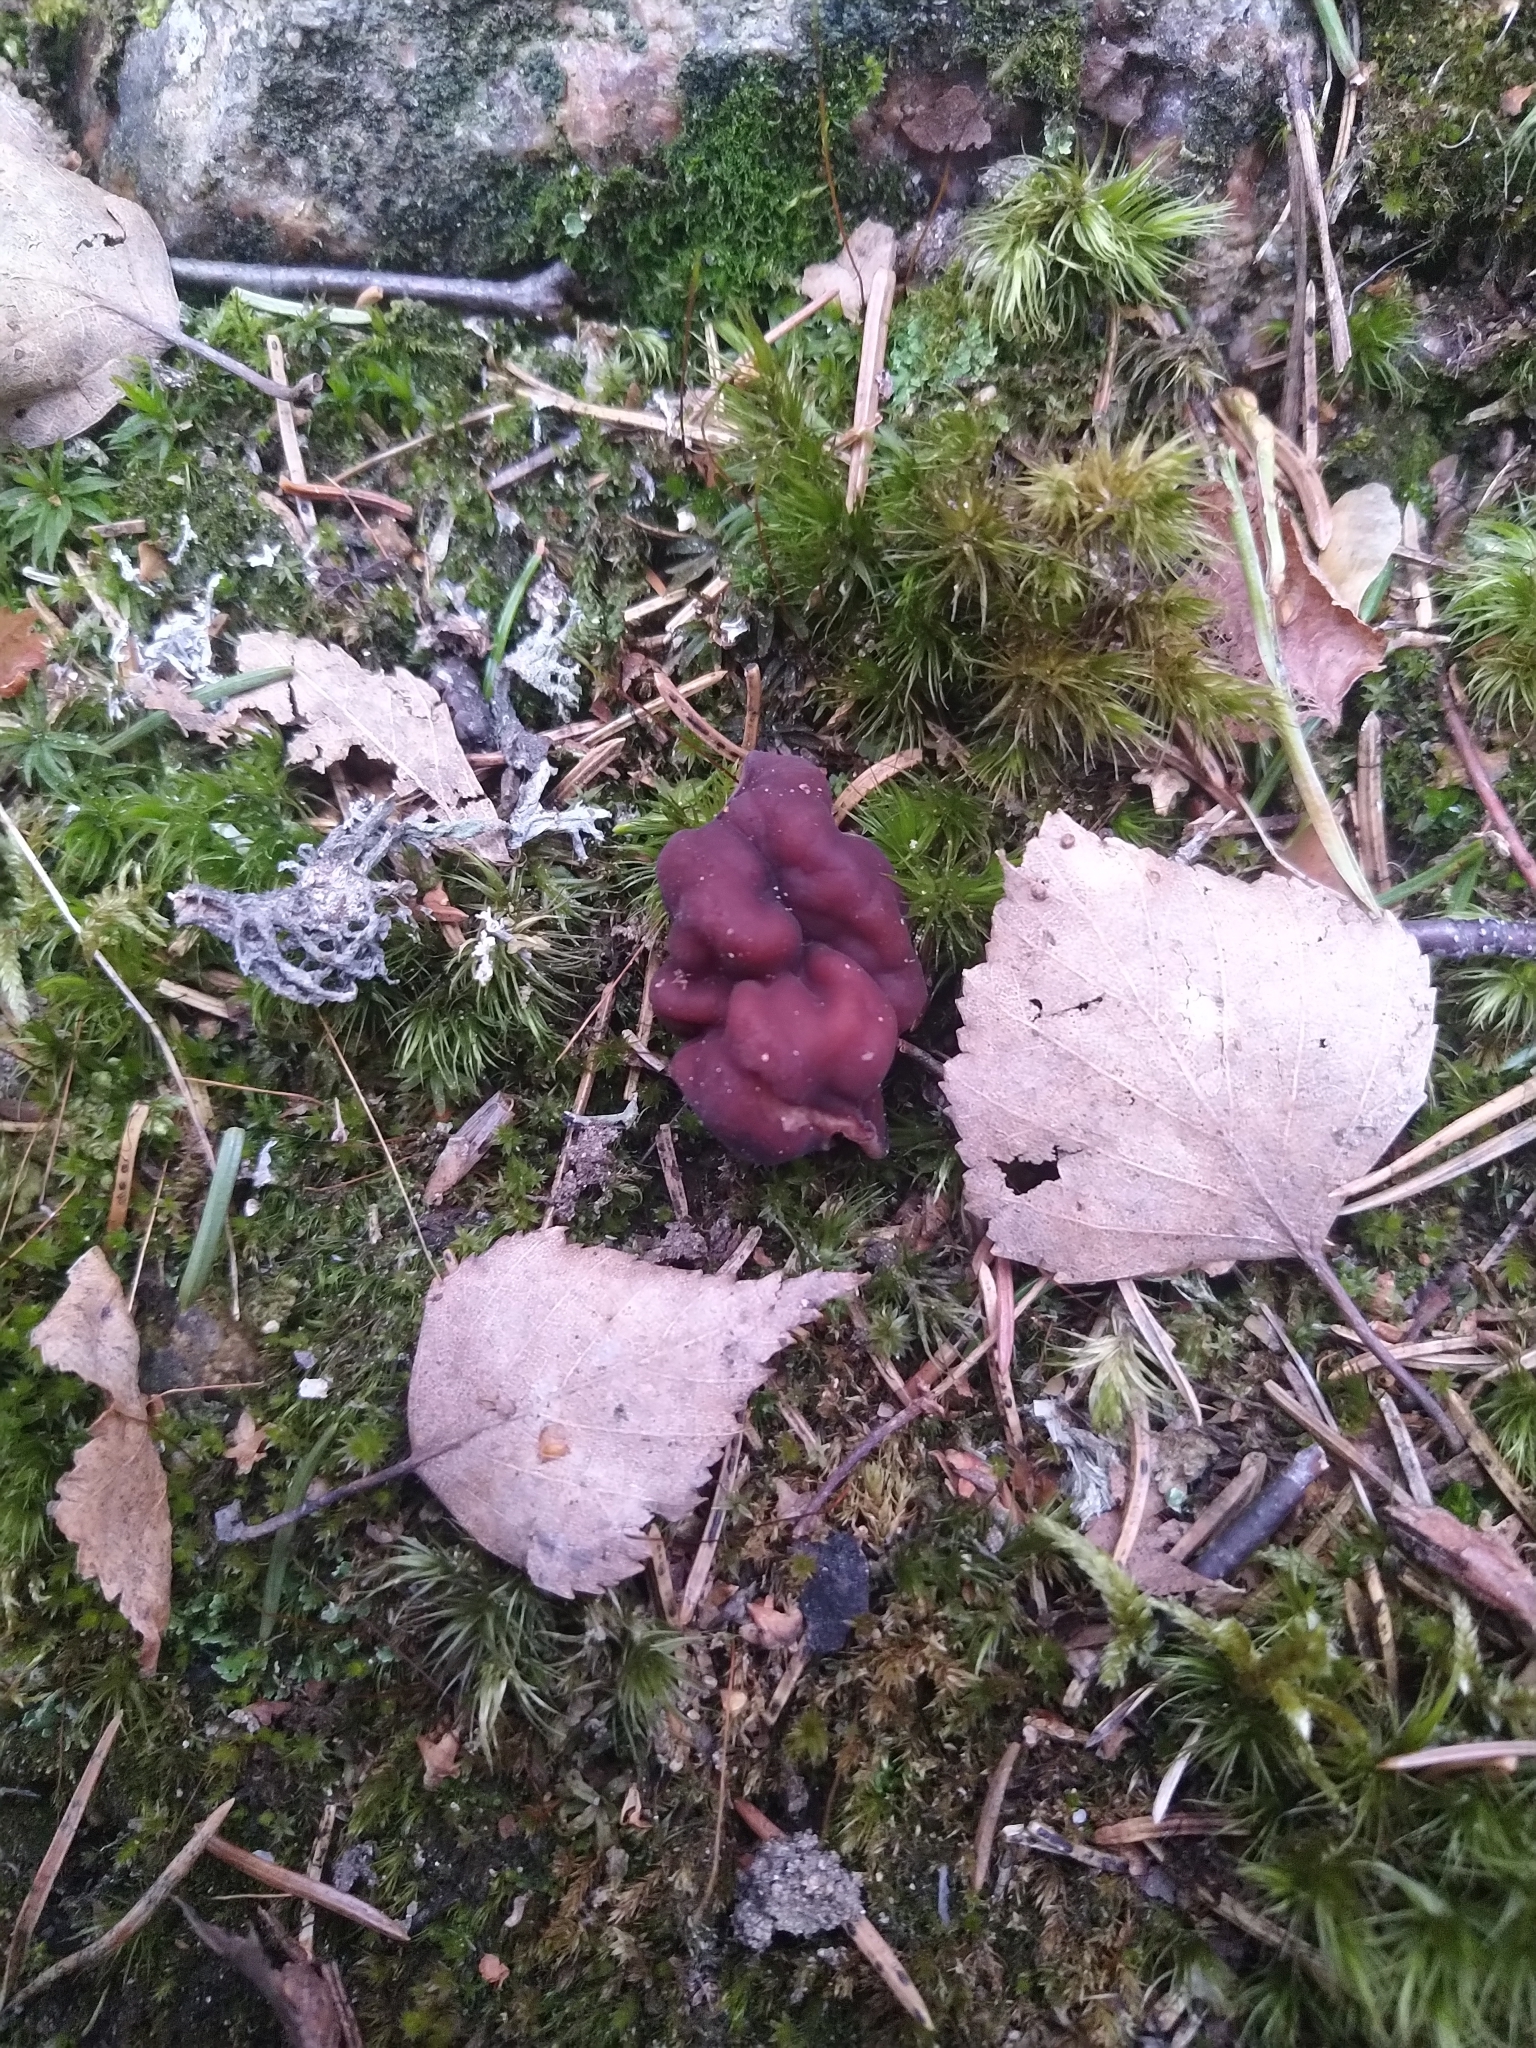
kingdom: Fungi
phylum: Ascomycota
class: Pezizomycetes
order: Pezizales
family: Discinaceae
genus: Gyromitra
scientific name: Gyromitra esculenta
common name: False morel
